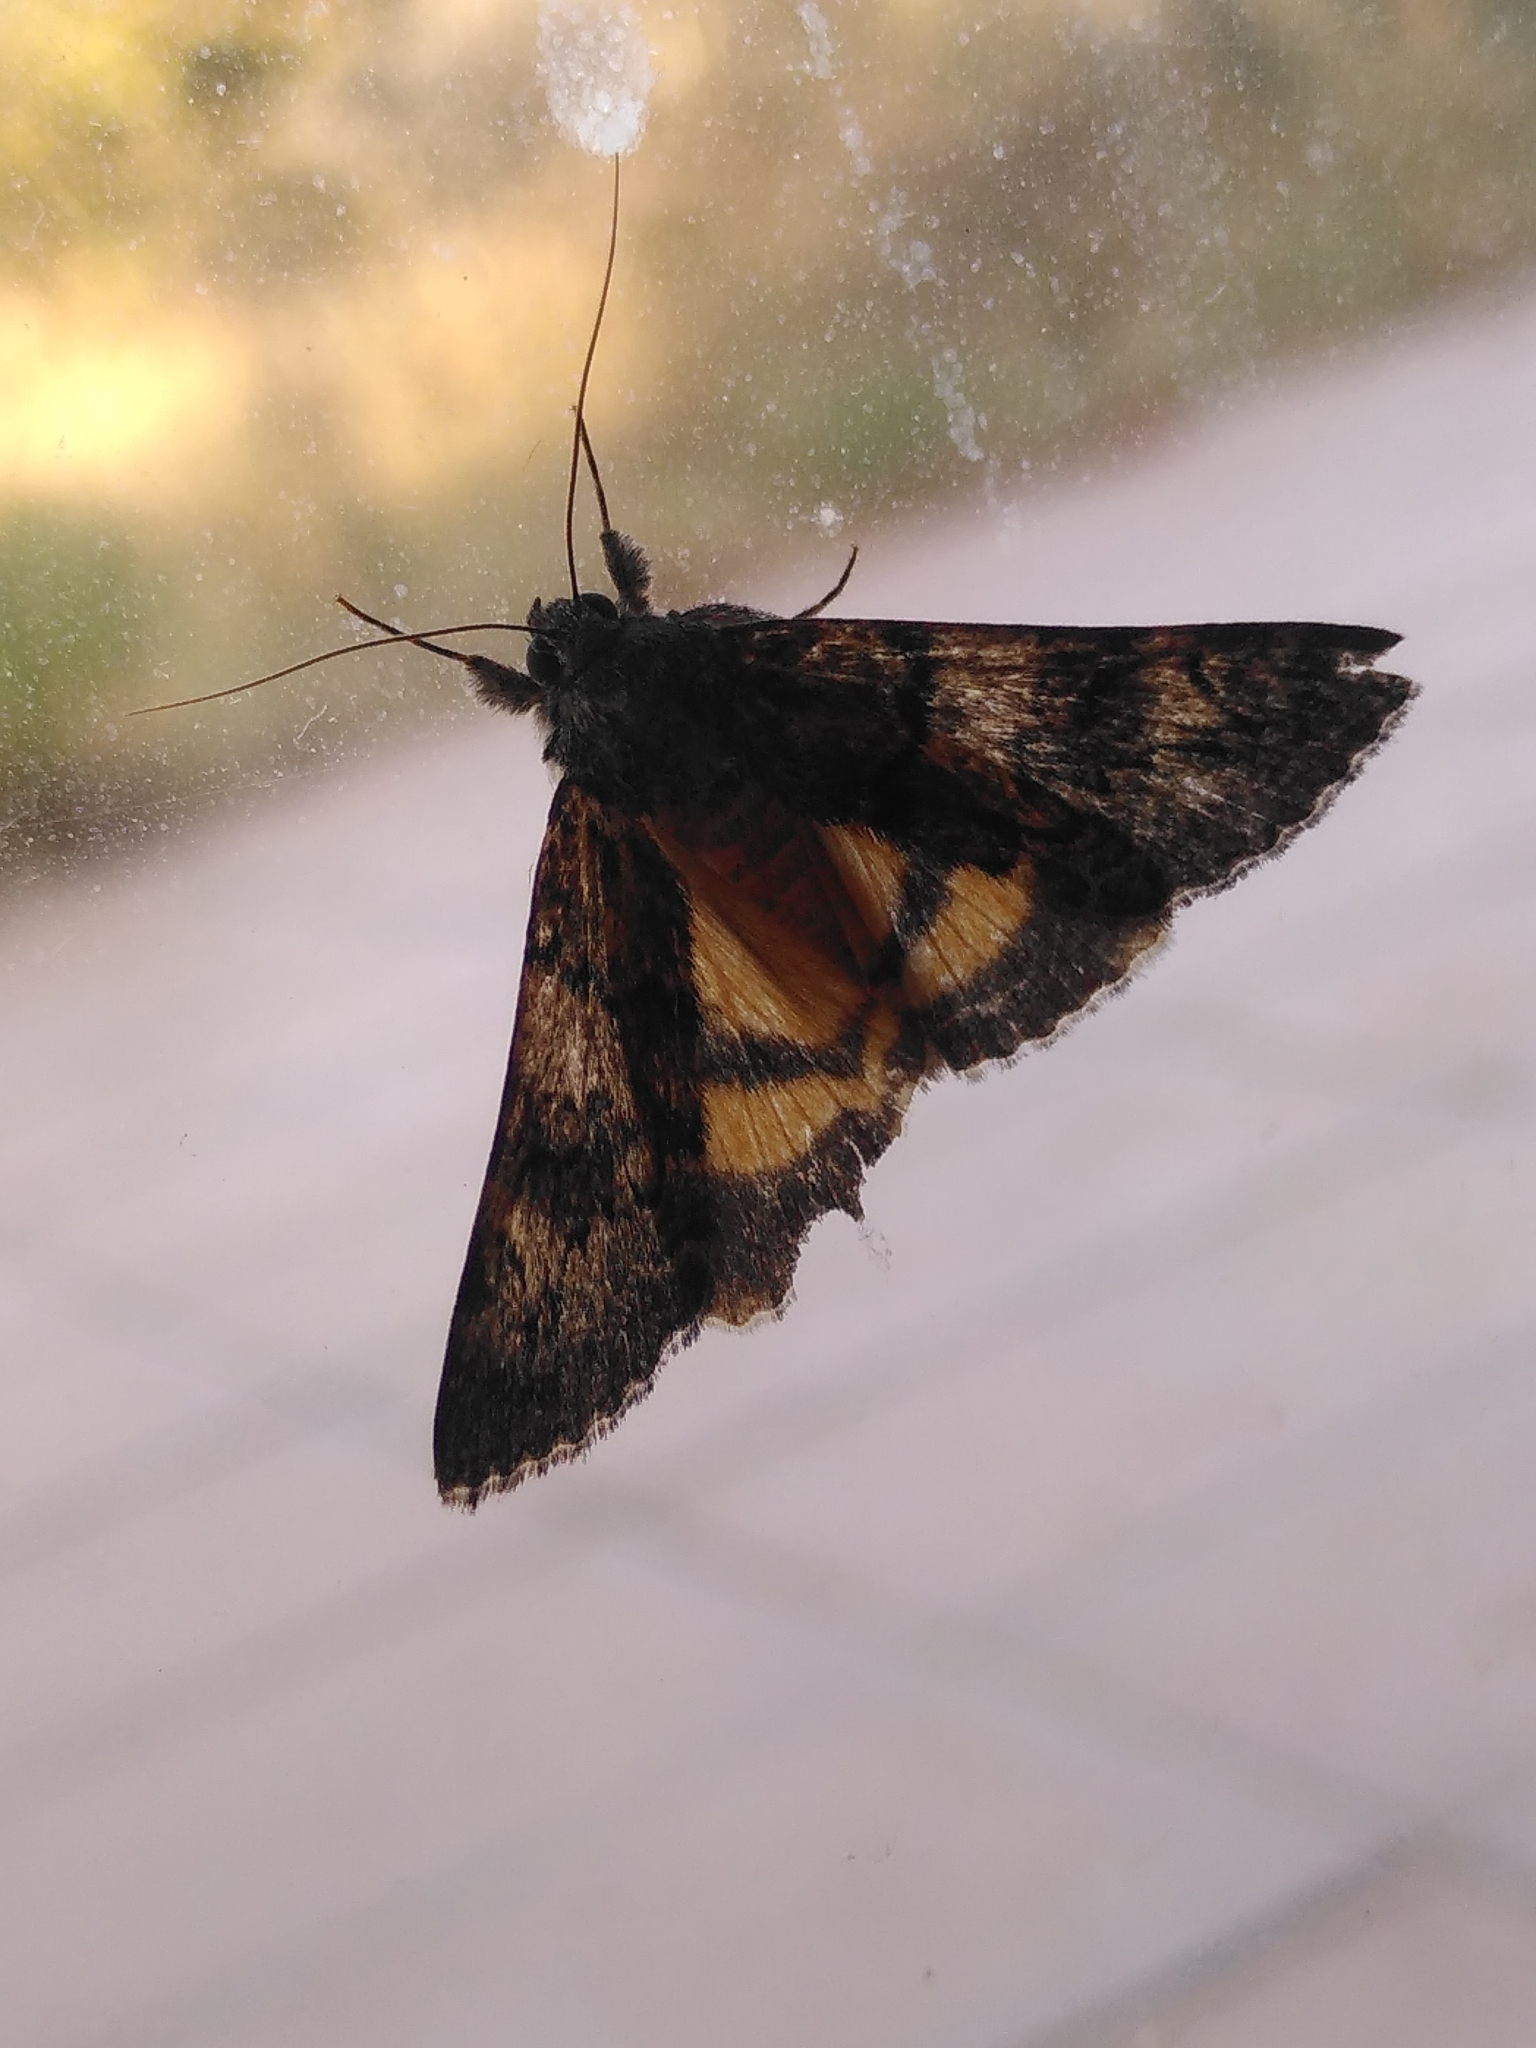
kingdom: Animalia
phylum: Arthropoda
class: Insecta
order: Lepidoptera
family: Erebidae
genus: Catocala
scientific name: Catocala nymphagoga
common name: Oak yellow underwing
